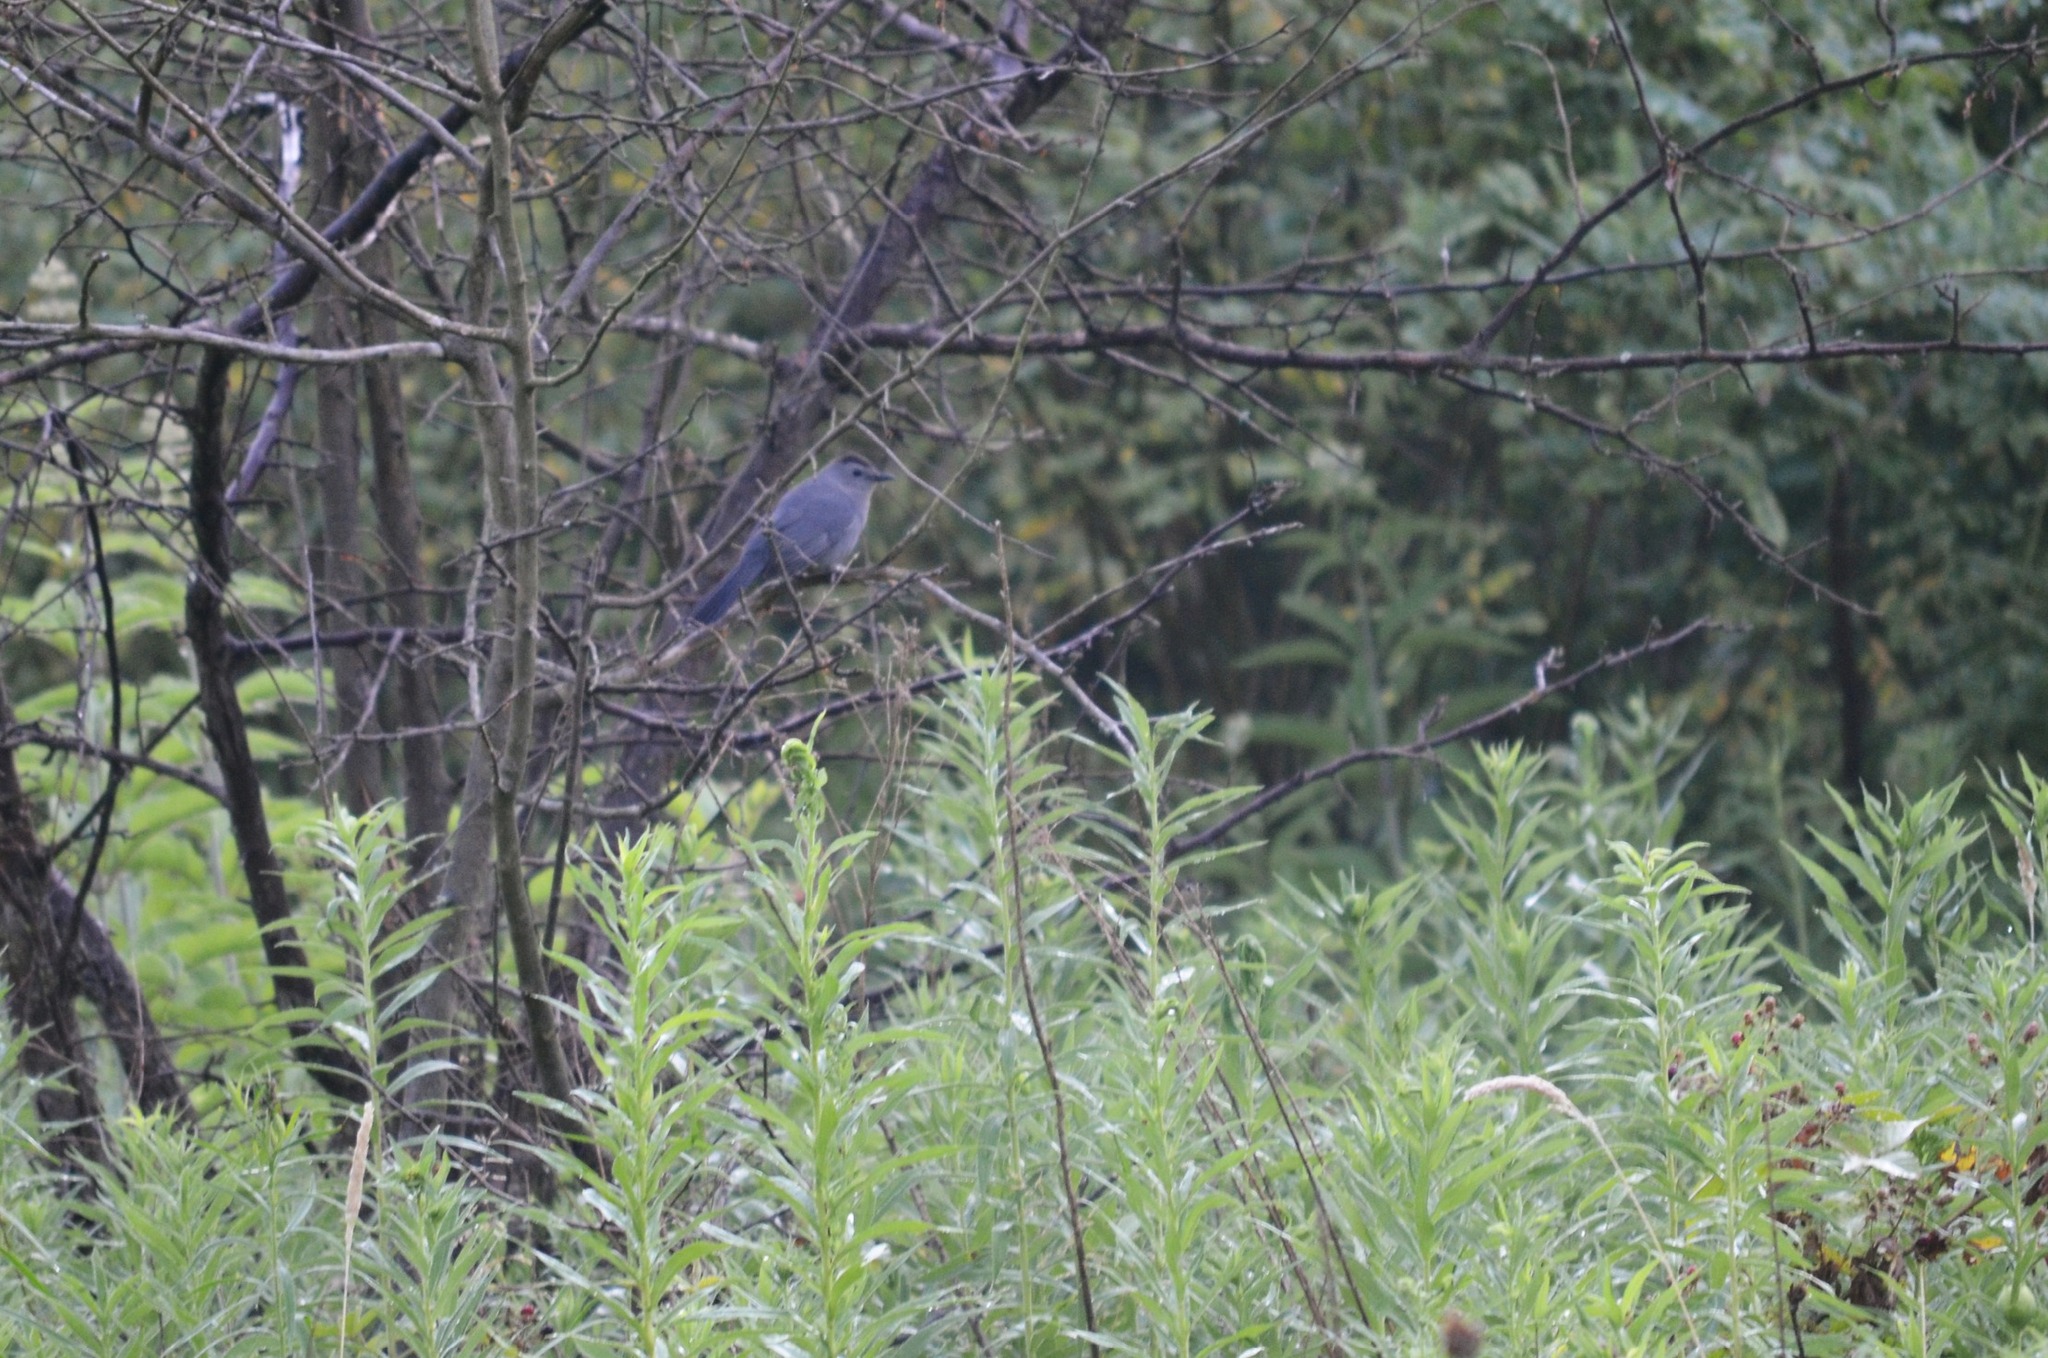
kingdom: Animalia
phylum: Chordata
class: Aves
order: Passeriformes
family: Mimidae
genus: Dumetella
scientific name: Dumetella carolinensis
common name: Gray catbird
